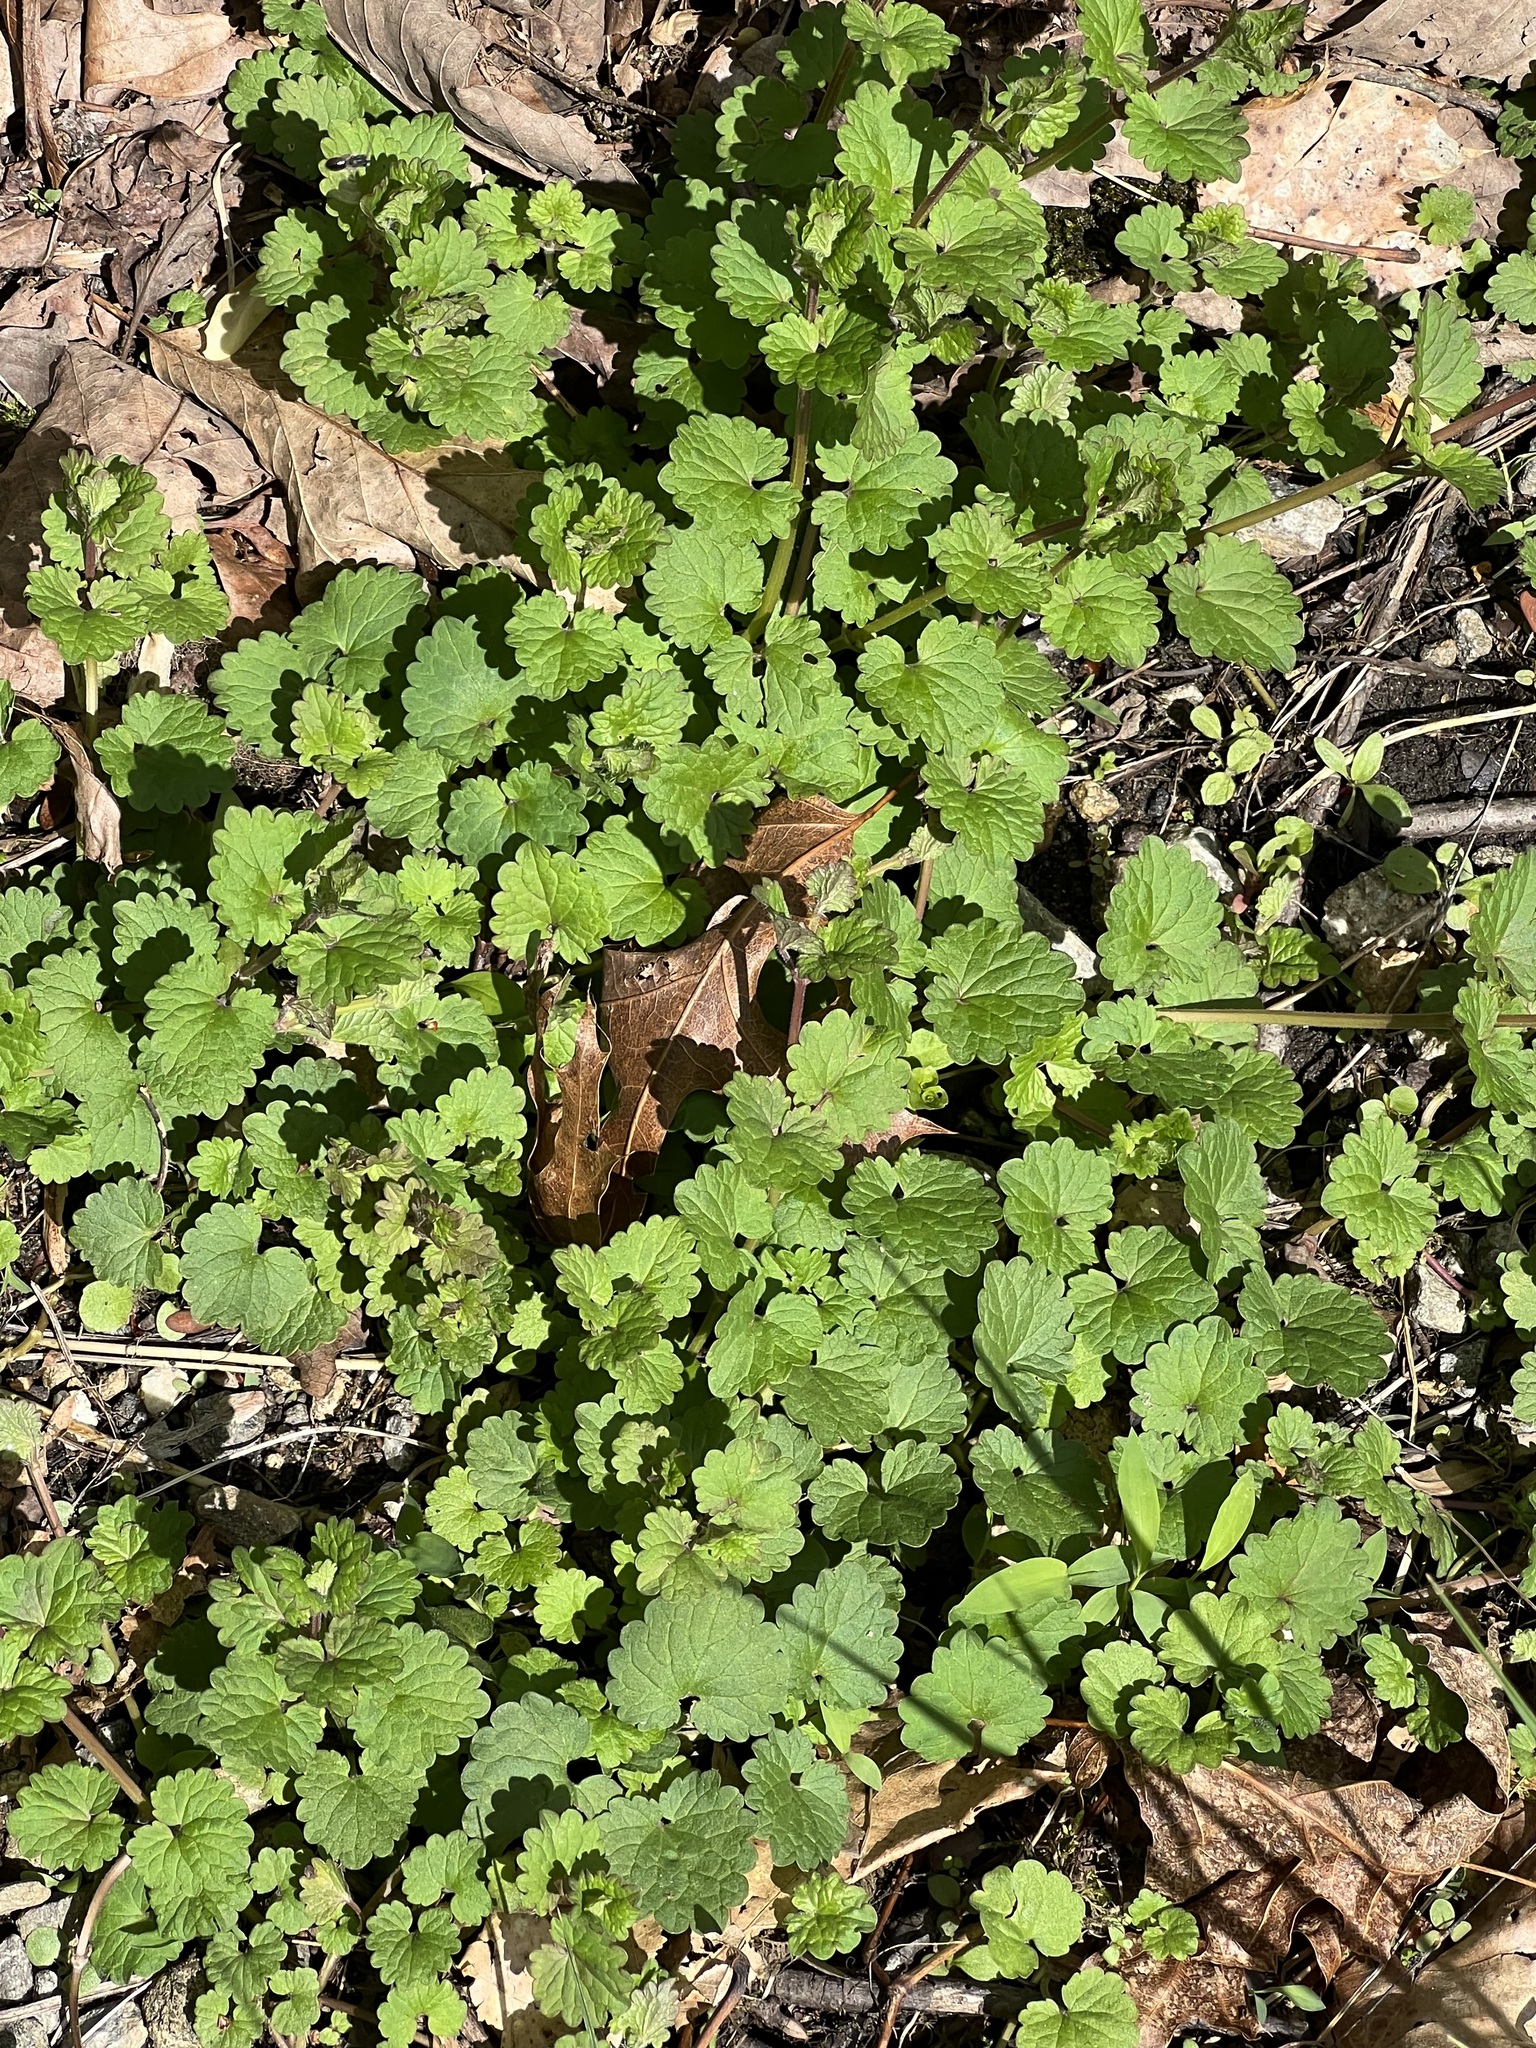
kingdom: Plantae
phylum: Tracheophyta
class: Magnoliopsida
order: Lamiales
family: Lamiaceae
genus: Glechoma
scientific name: Glechoma hederacea
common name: Ground ivy
